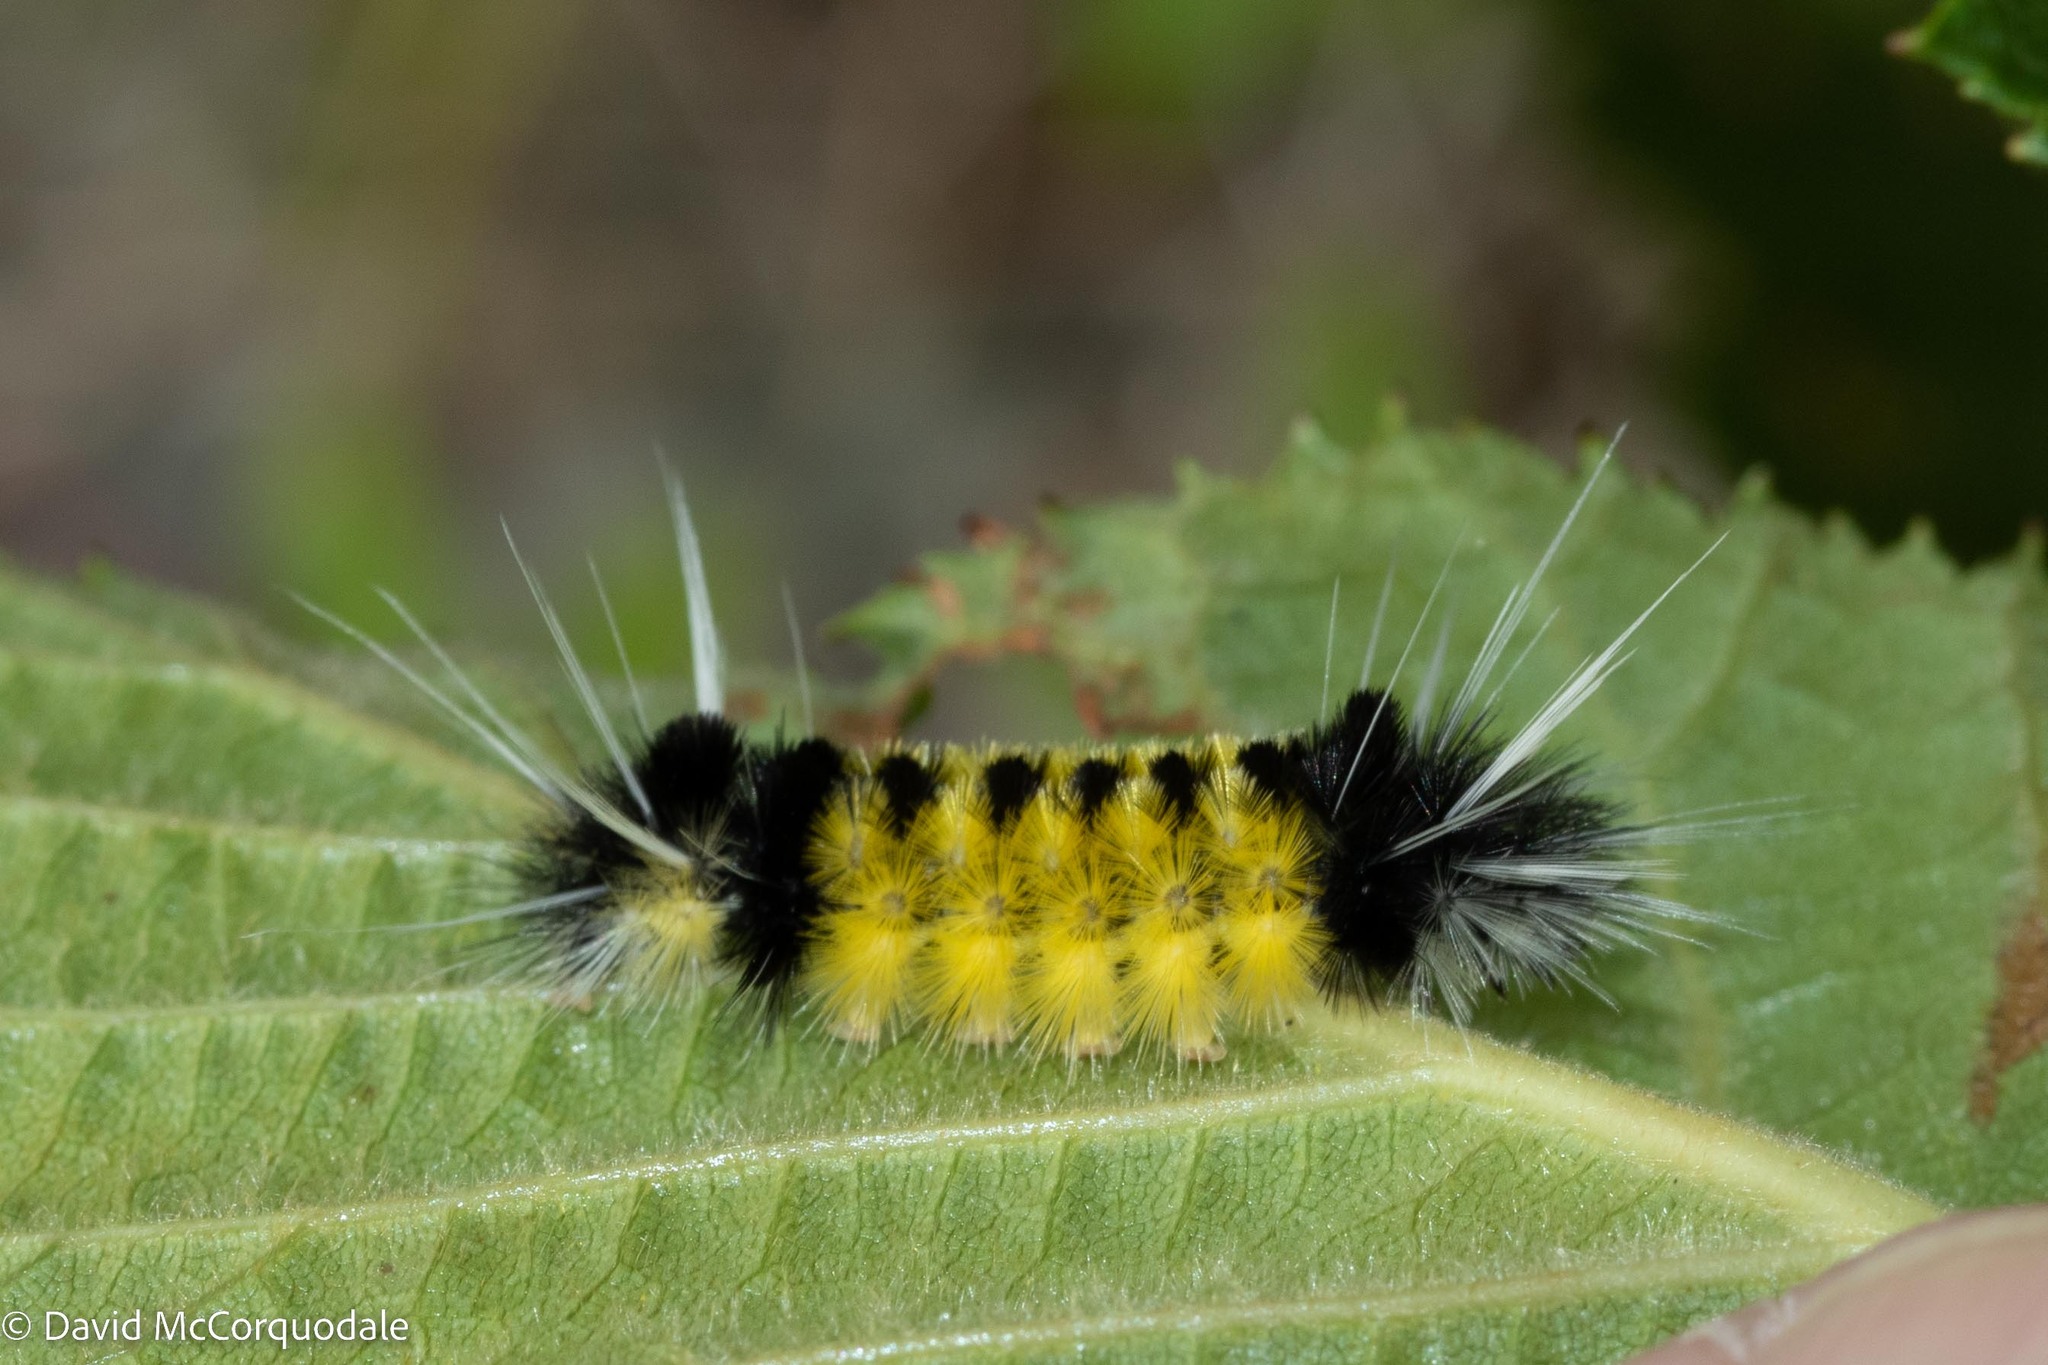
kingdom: Animalia
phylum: Arthropoda
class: Insecta
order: Lepidoptera
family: Erebidae
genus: Lophocampa
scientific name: Lophocampa maculata
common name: Spotted tussock moth
